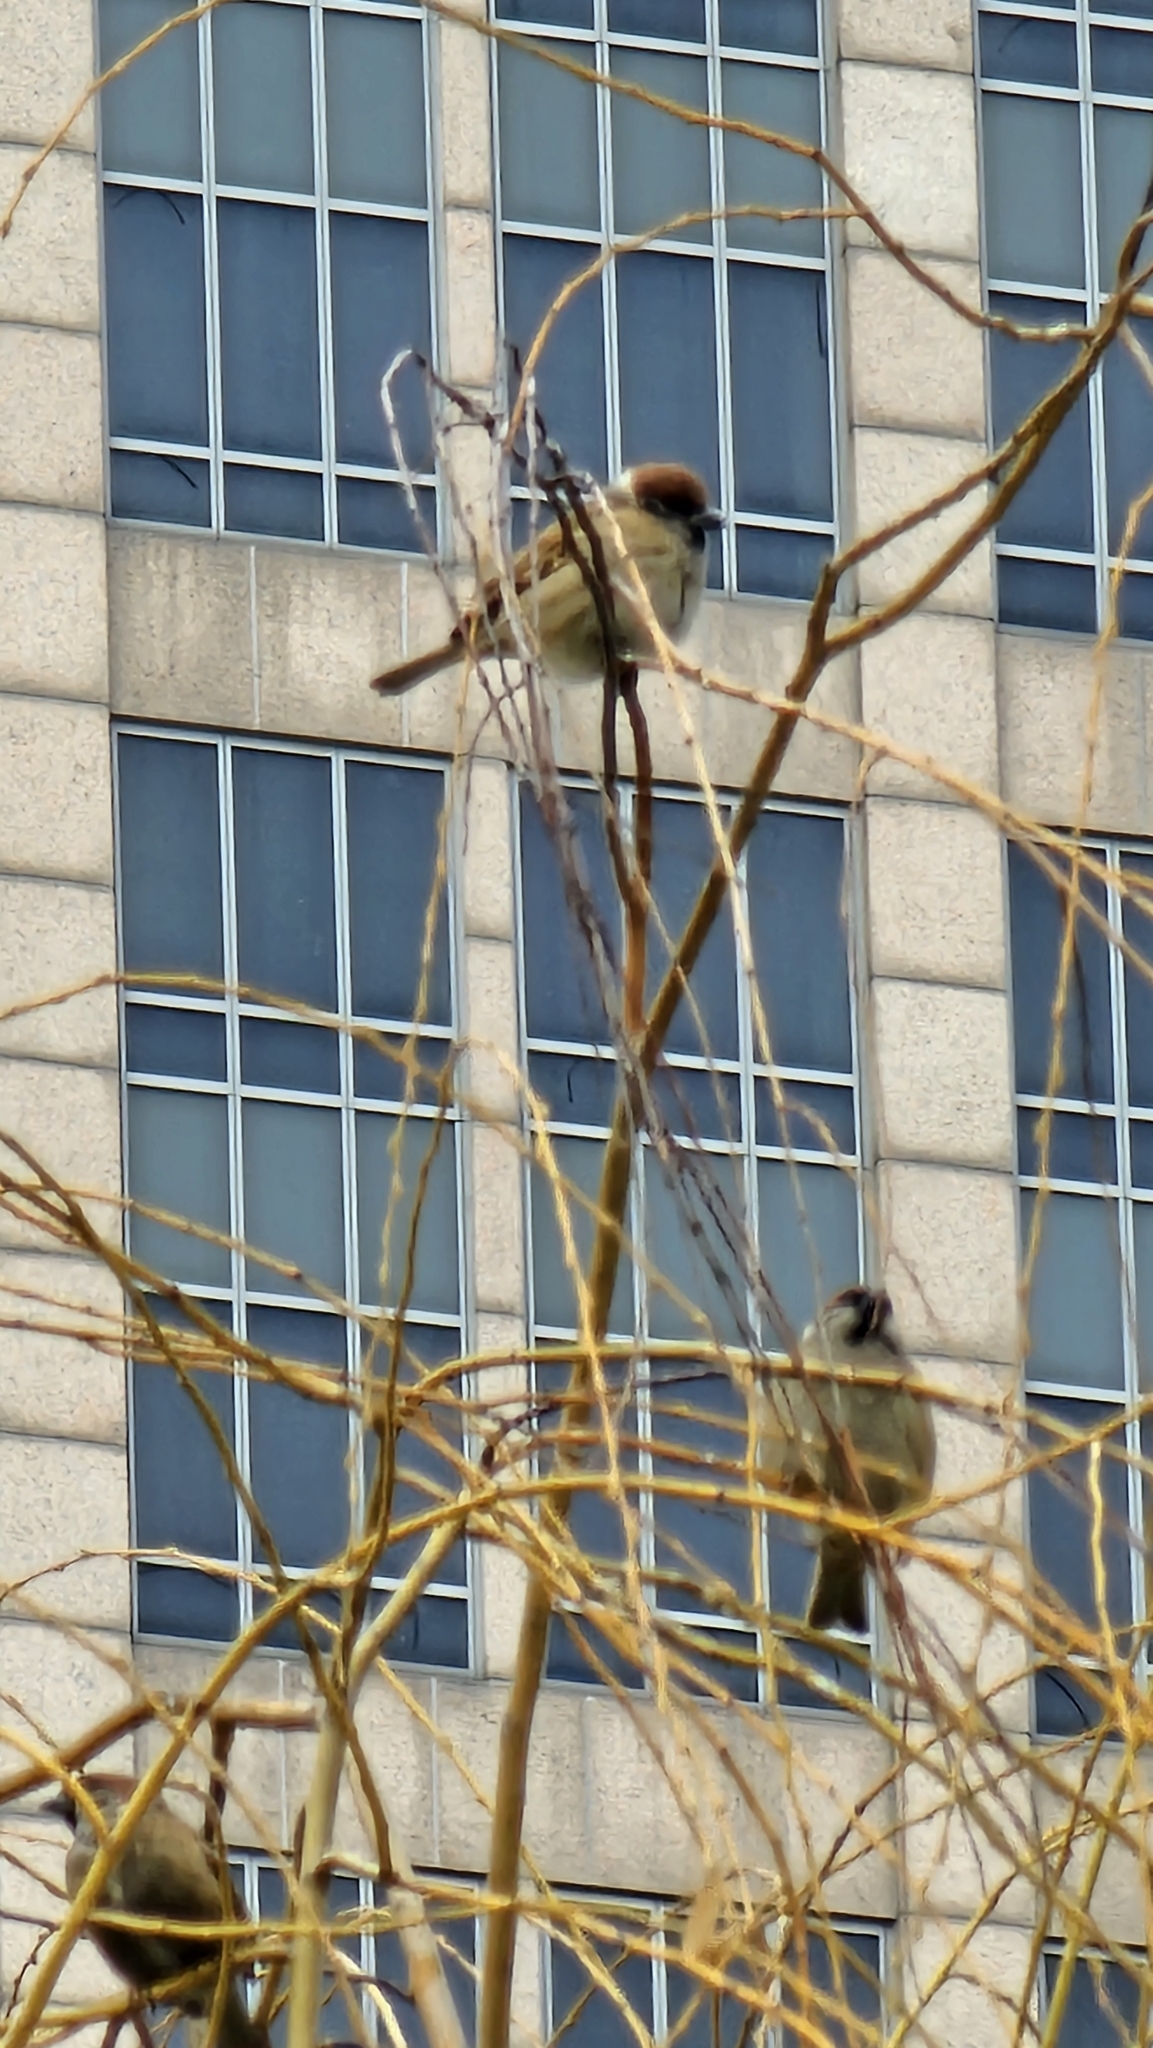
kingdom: Animalia
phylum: Chordata
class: Aves
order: Passeriformes
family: Passeridae
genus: Passer
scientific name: Passer montanus
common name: Eurasian tree sparrow
